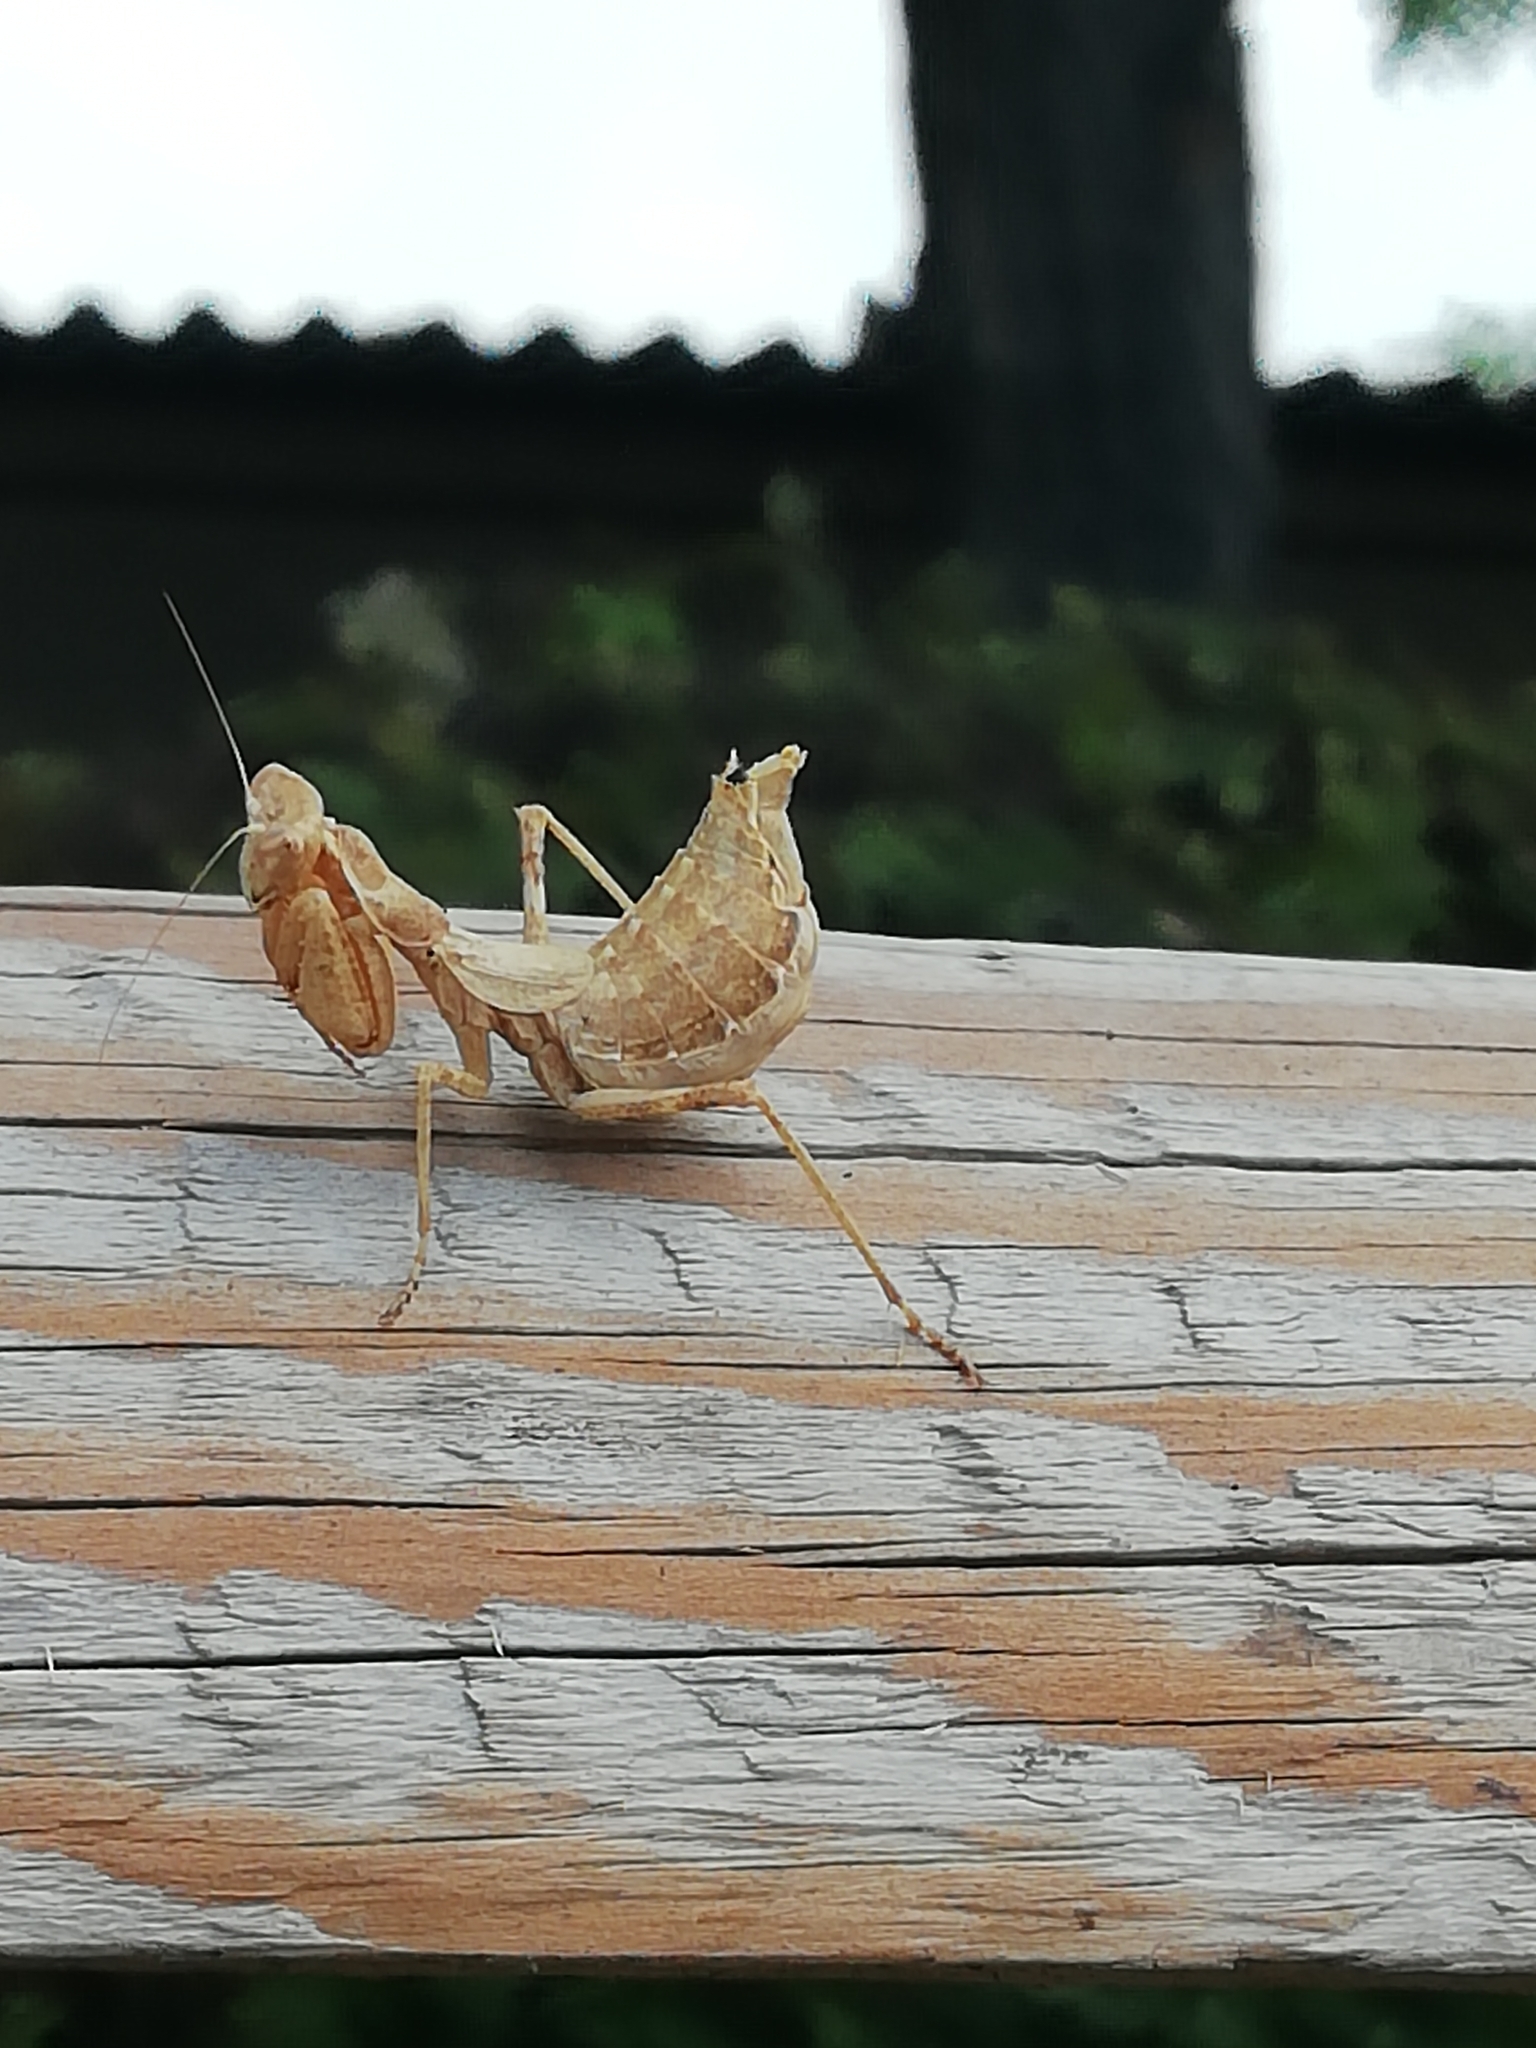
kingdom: Animalia
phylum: Arthropoda
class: Insecta
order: Mantodea
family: Amelidae
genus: Ameles
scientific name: Ameles spallanzania
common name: European dwarf mantis
